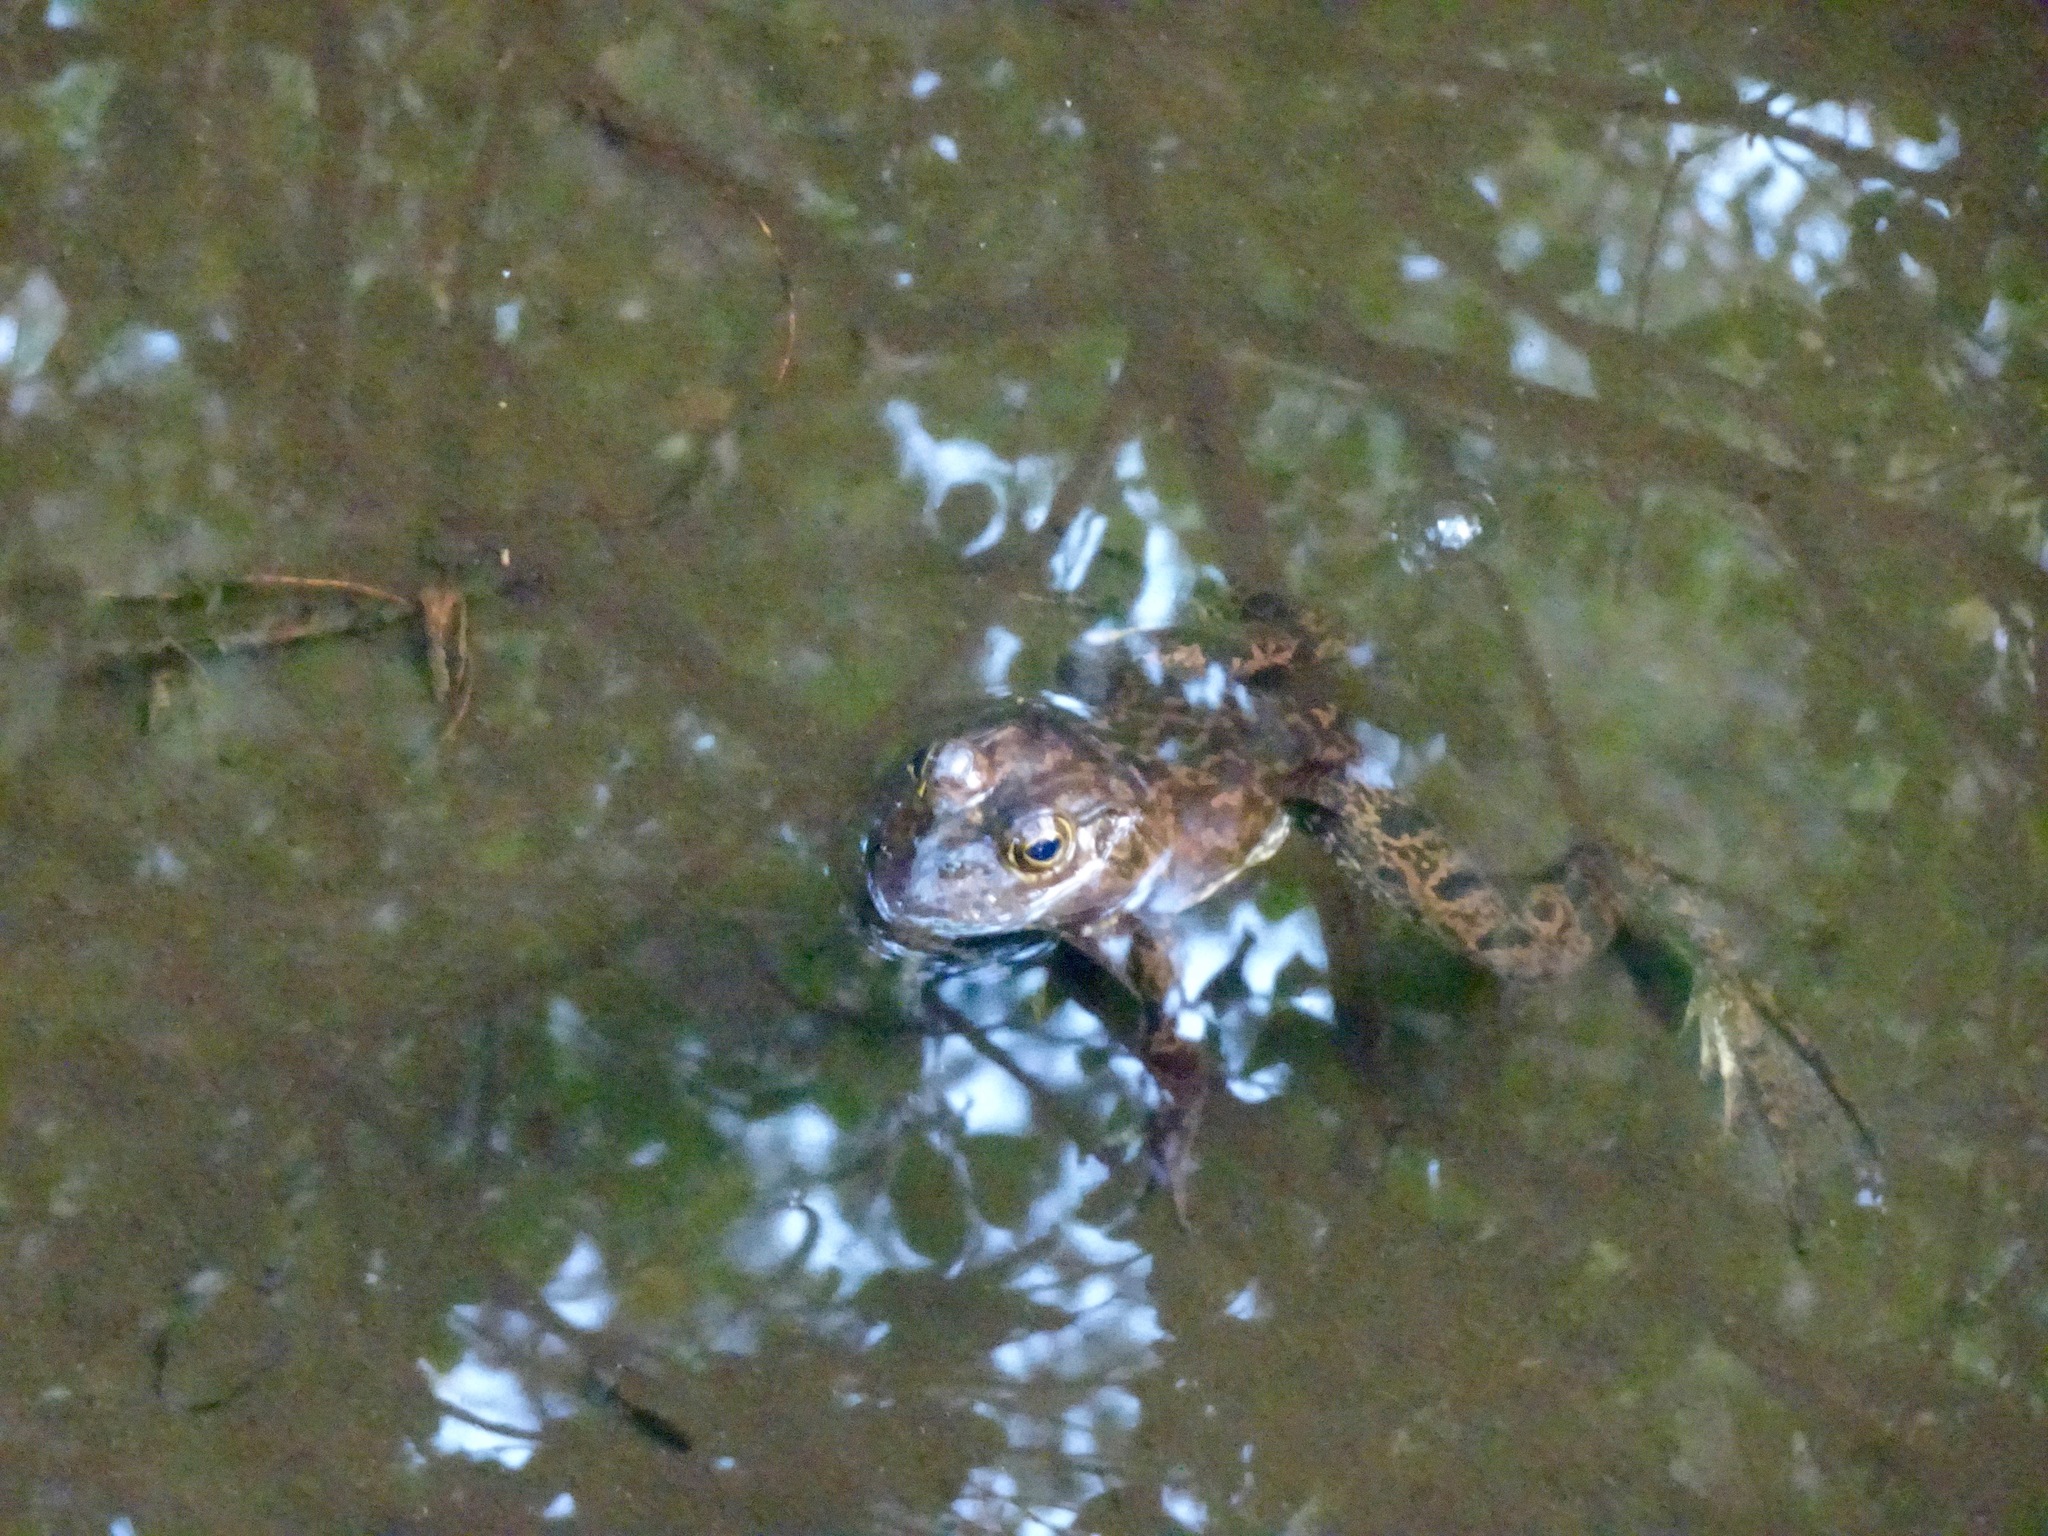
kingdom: Animalia
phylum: Chordata
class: Amphibia
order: Anura
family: Ranidae
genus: Lithobates
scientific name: Lithobates catesbeianus
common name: American bullfrog
